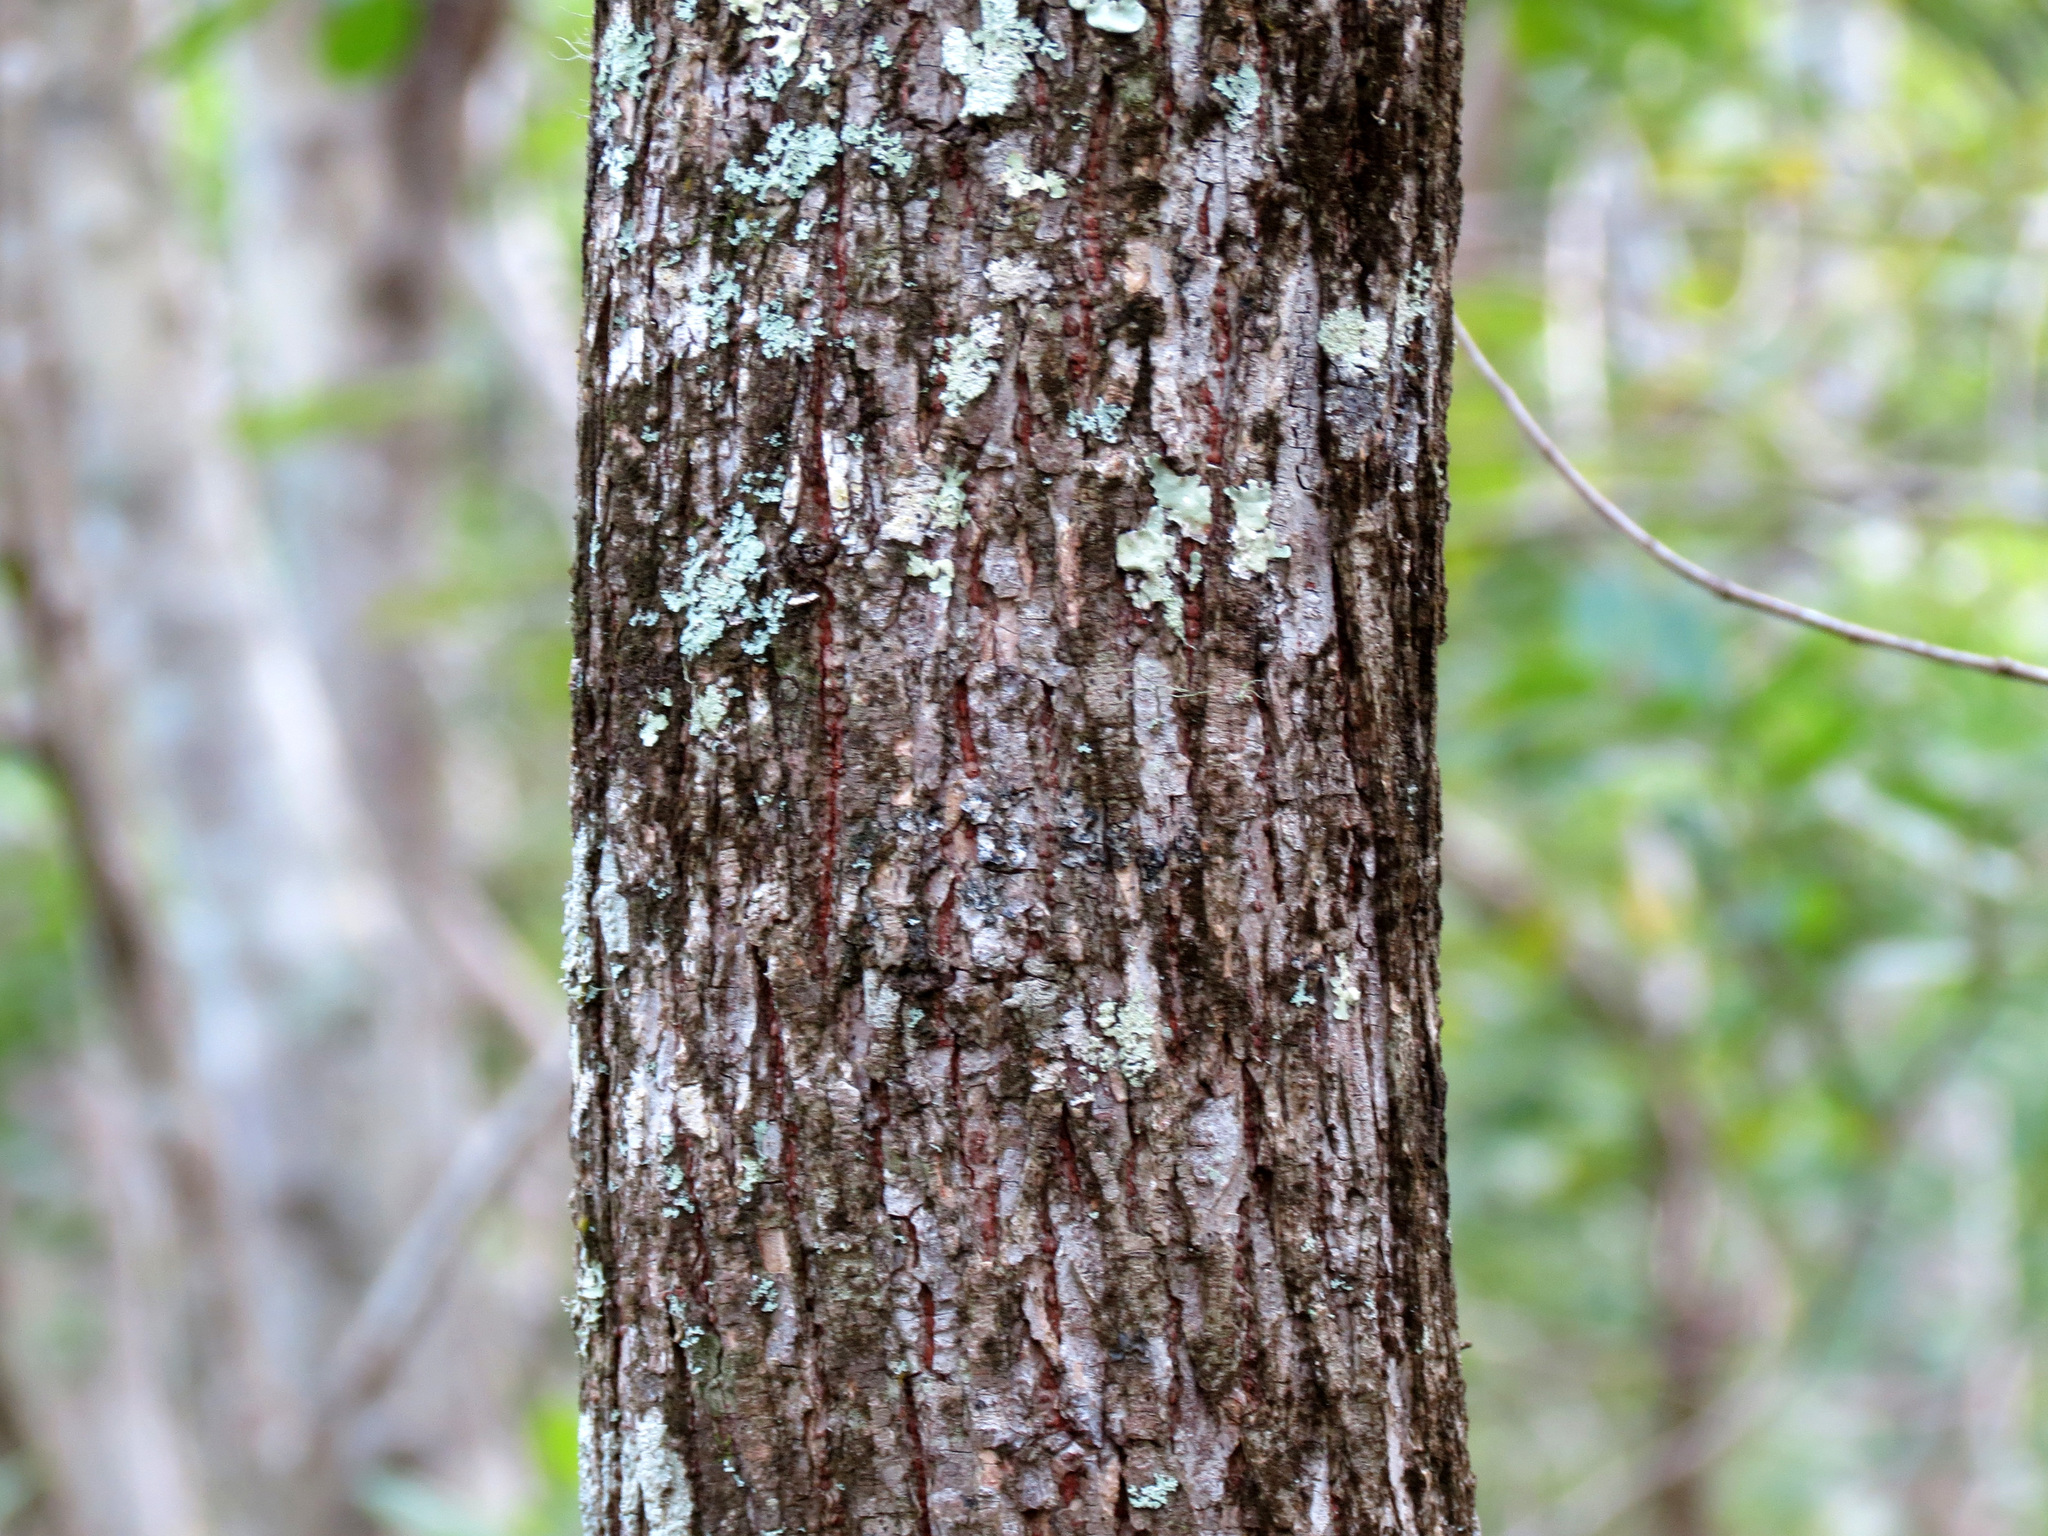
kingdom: Plantae
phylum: Tracheophyta
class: Magnoliopsida
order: Rosales
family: Ulmaceae
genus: Ulmus
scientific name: Ulmus americana
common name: American elm
